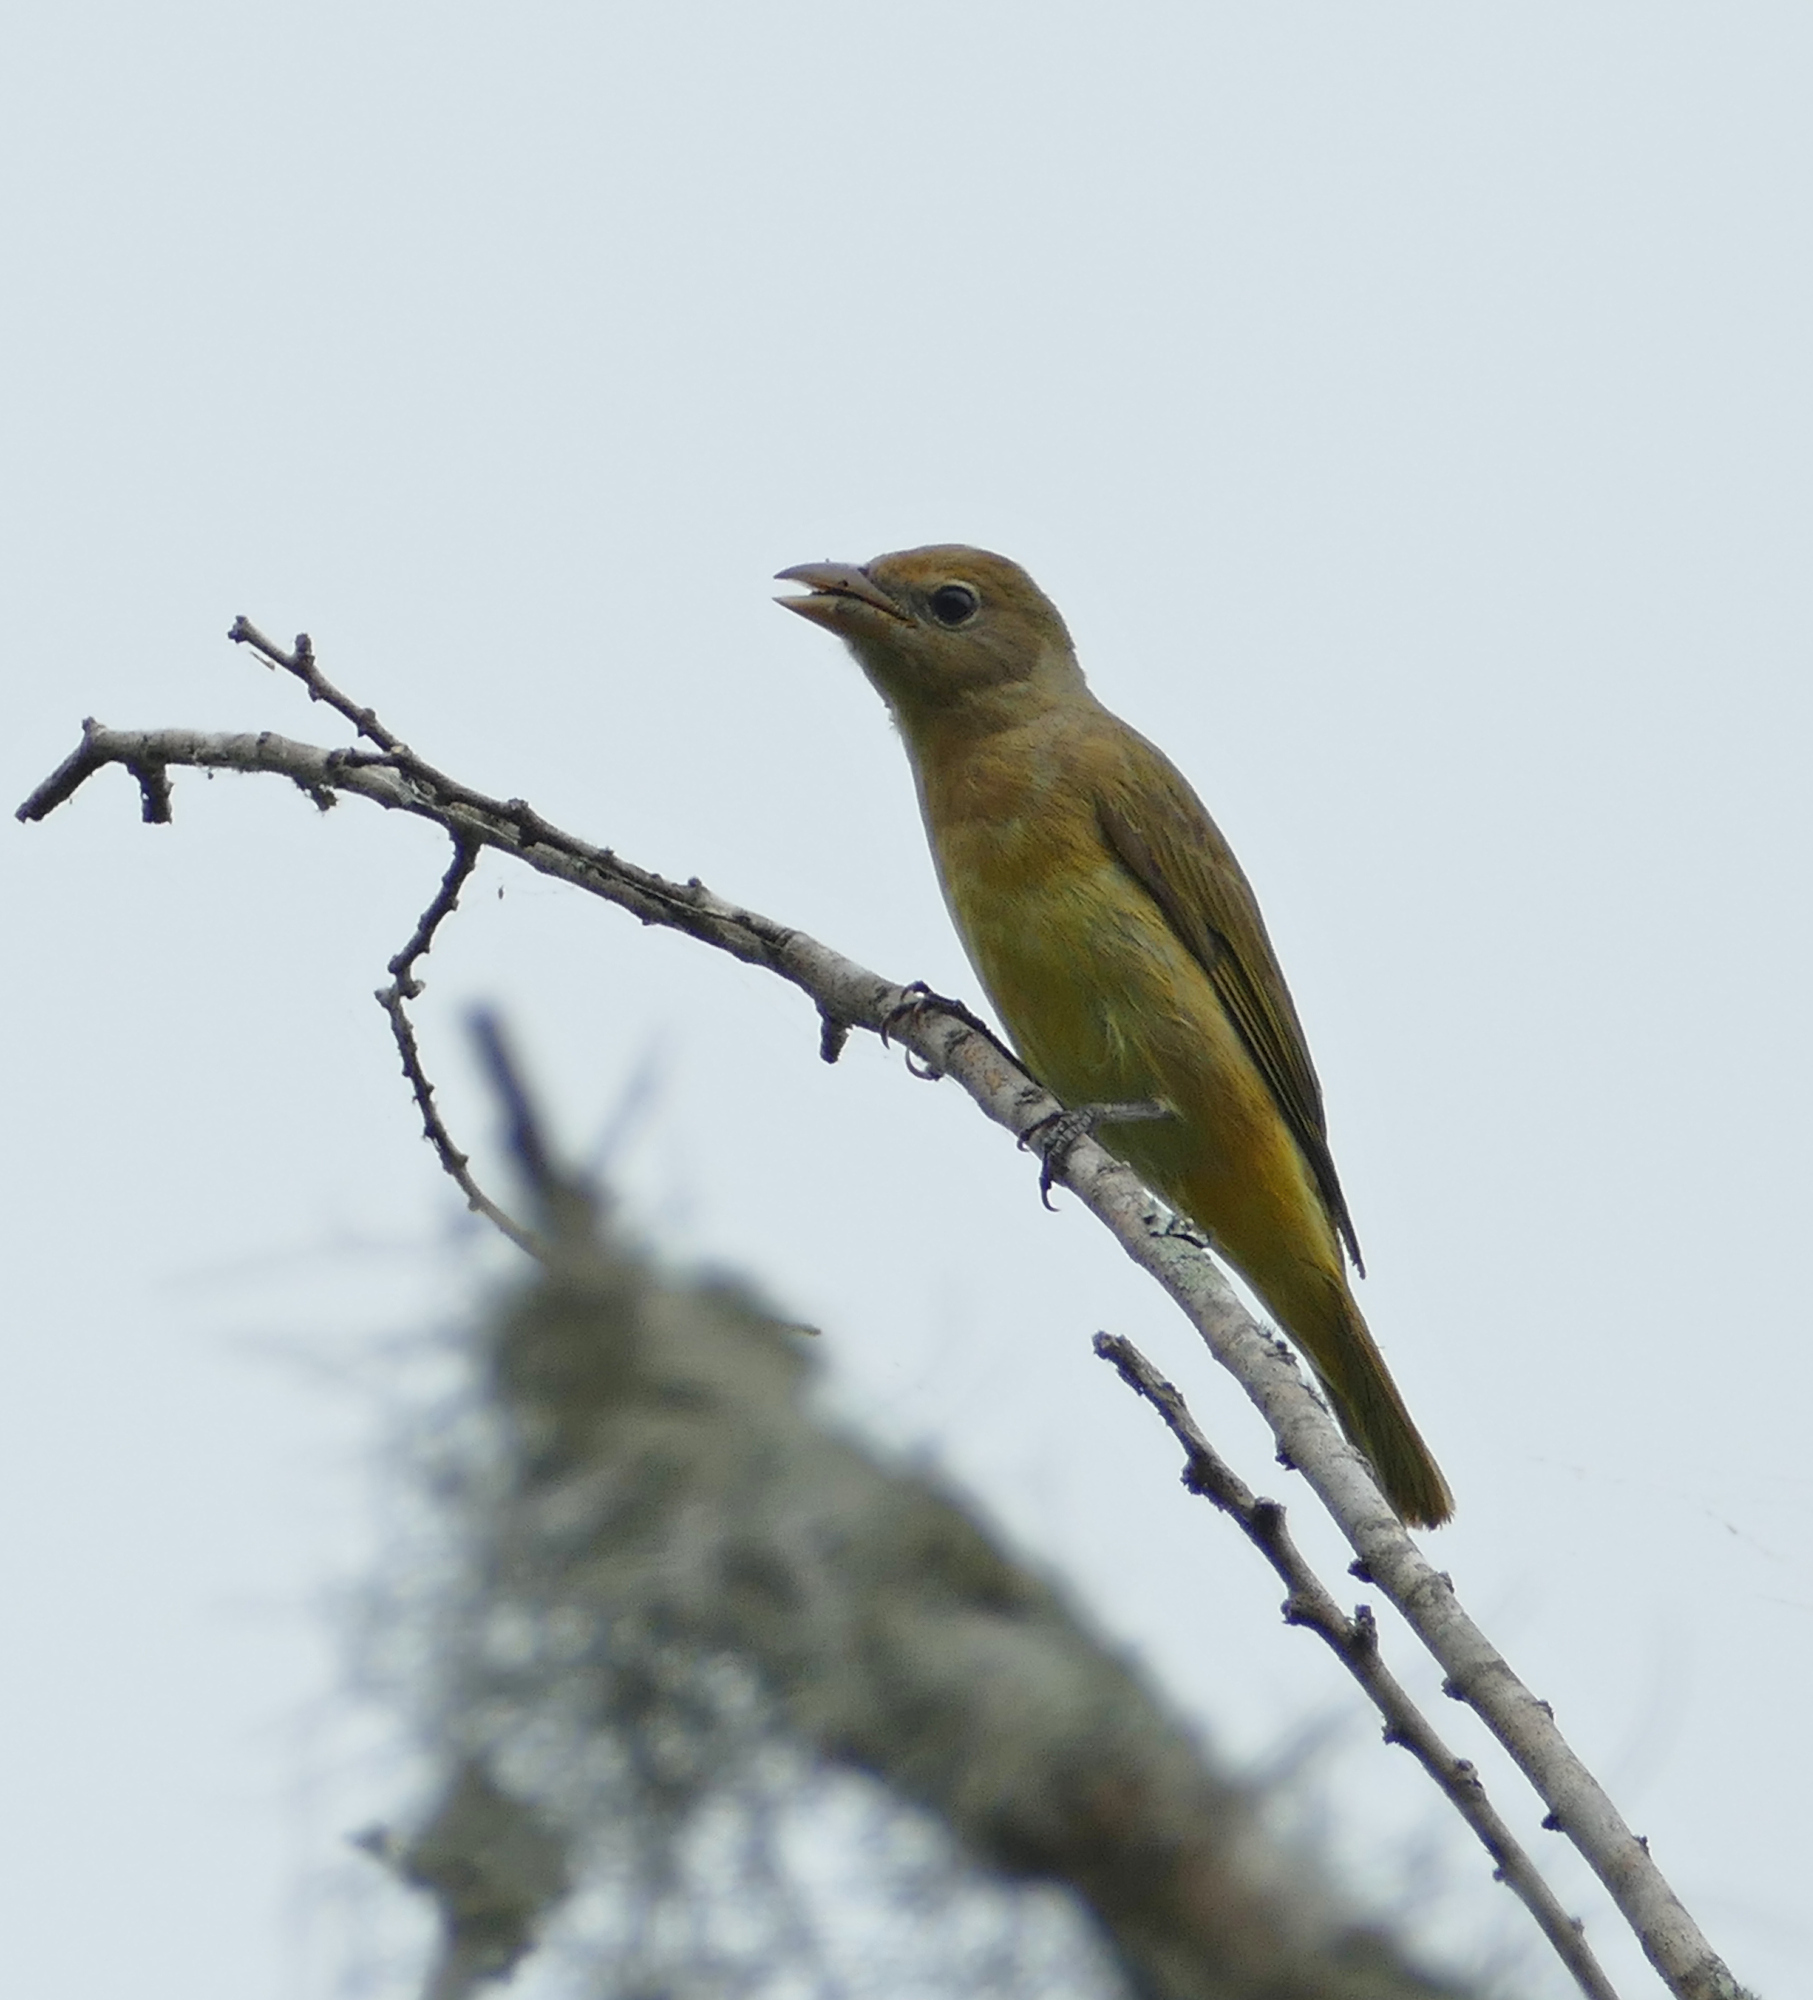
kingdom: Animalia
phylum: Chordata
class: Aves
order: Passeriformes
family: Cardinalidae
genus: Piranga
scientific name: Piranga rubra
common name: Summer tanager
